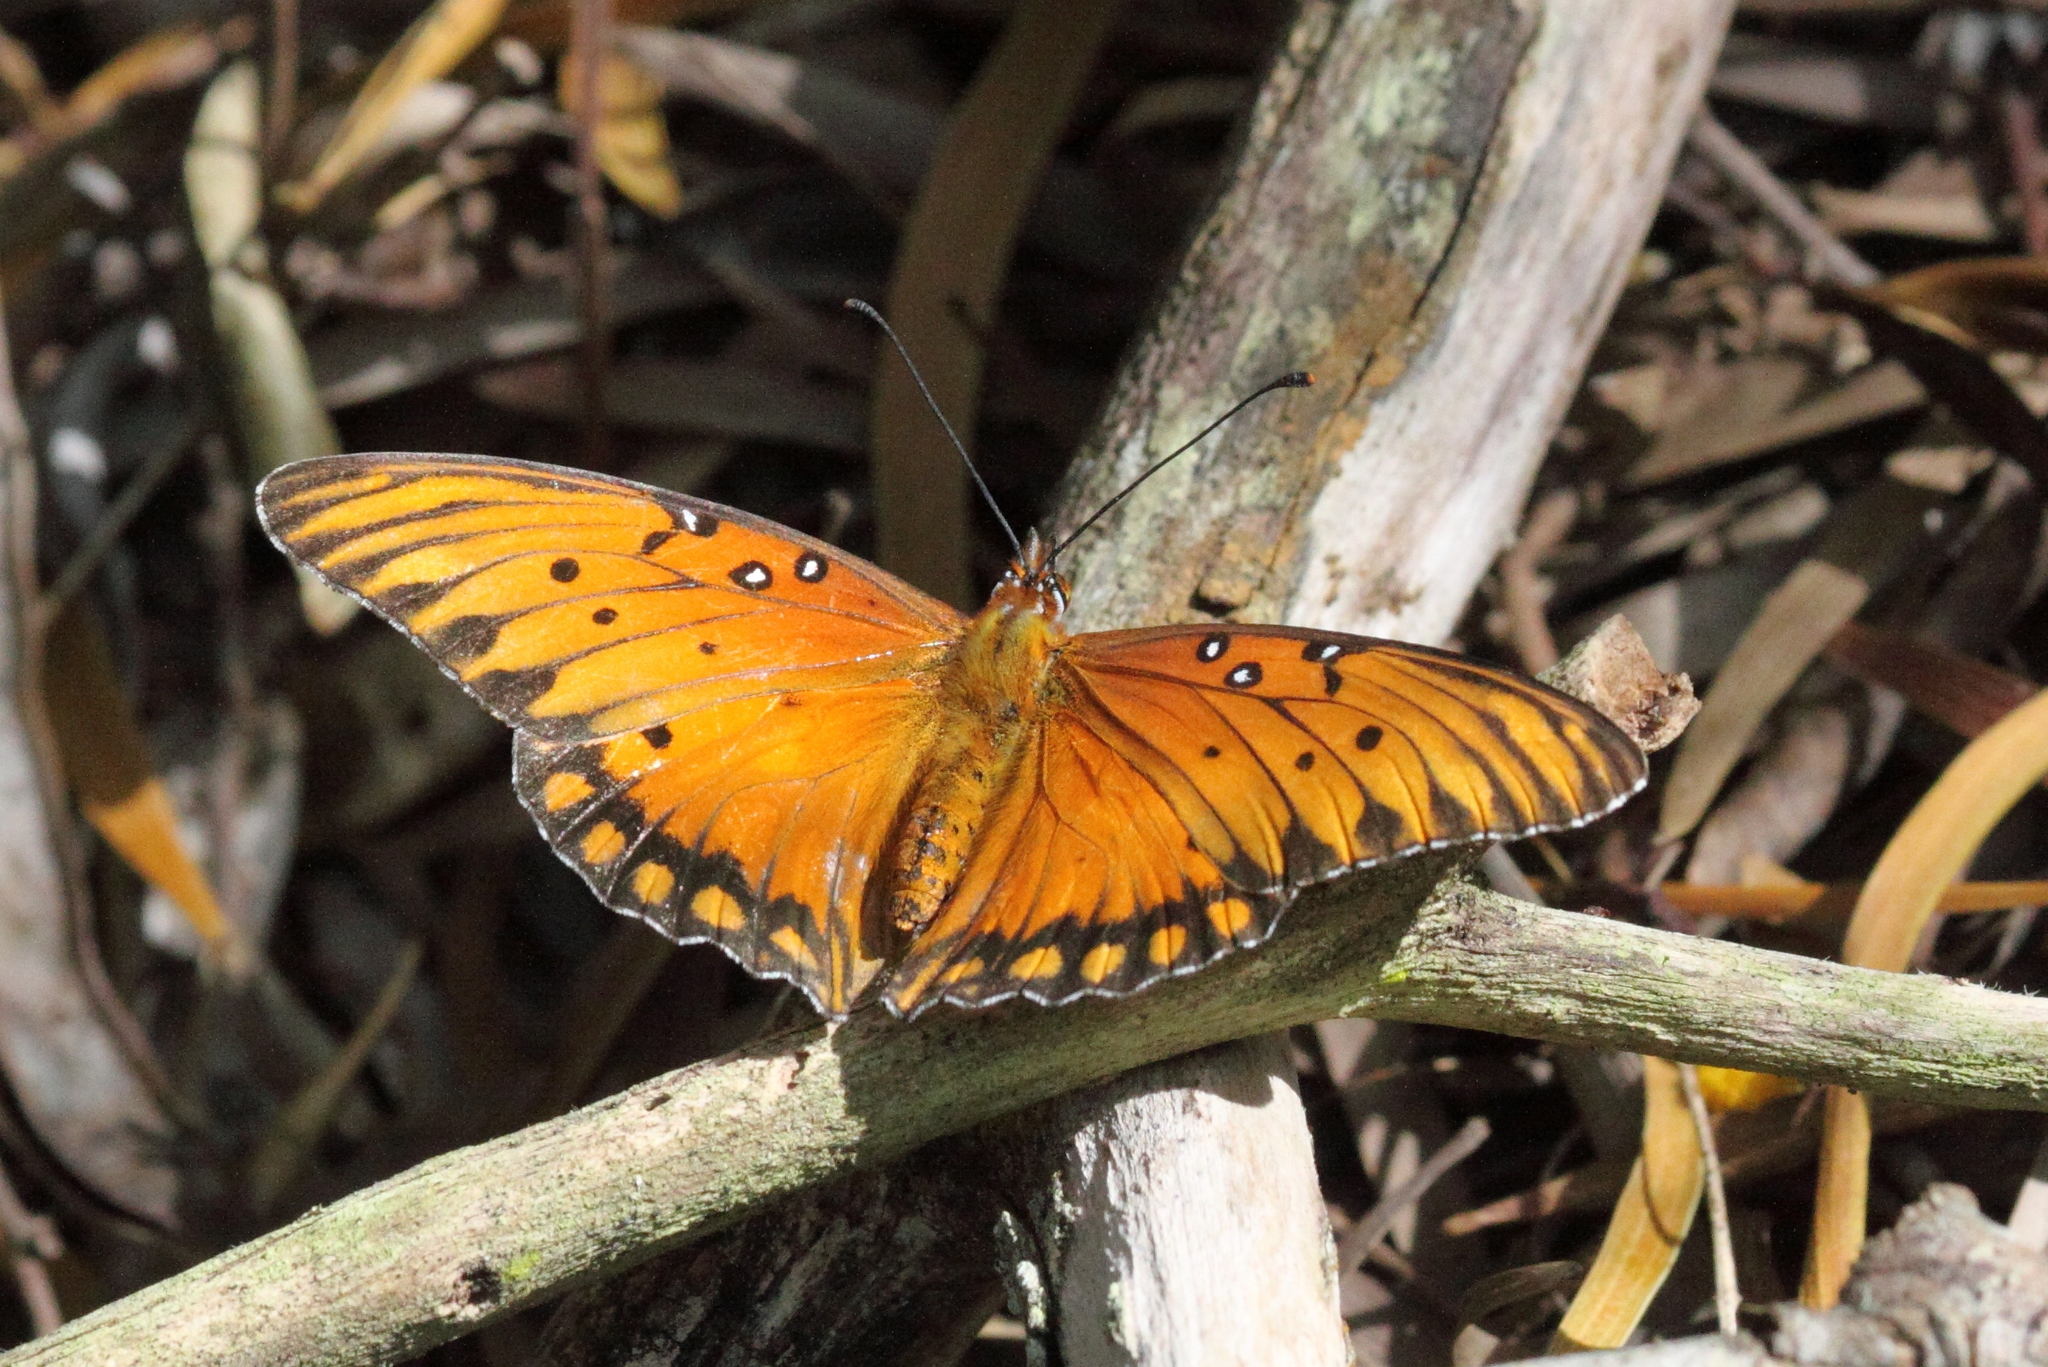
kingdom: Animalia
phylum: Arthropoda
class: Insecta
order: Lepidoptera
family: Nymphalidae
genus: Dione
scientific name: Dione vanillae
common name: Gulf fritillary
